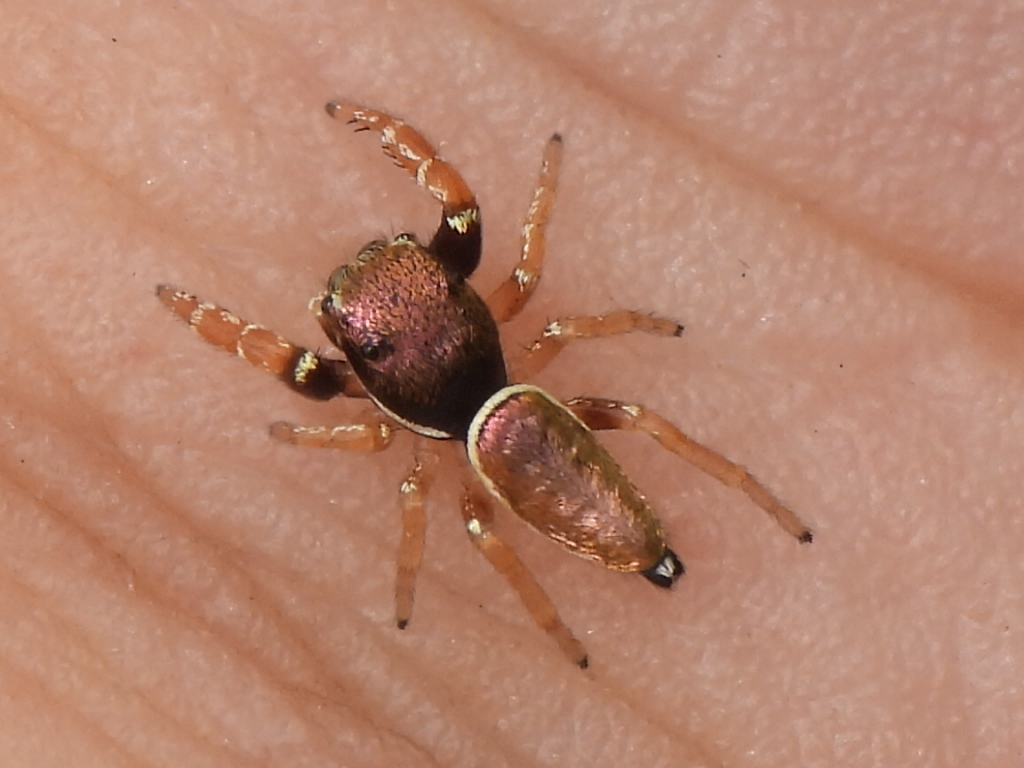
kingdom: Animalia
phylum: Arthropoda
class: Arachnida
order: Araneae
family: Salticidae
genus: Sassacus
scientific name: Sassacus vitis
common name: Jumping spiders
